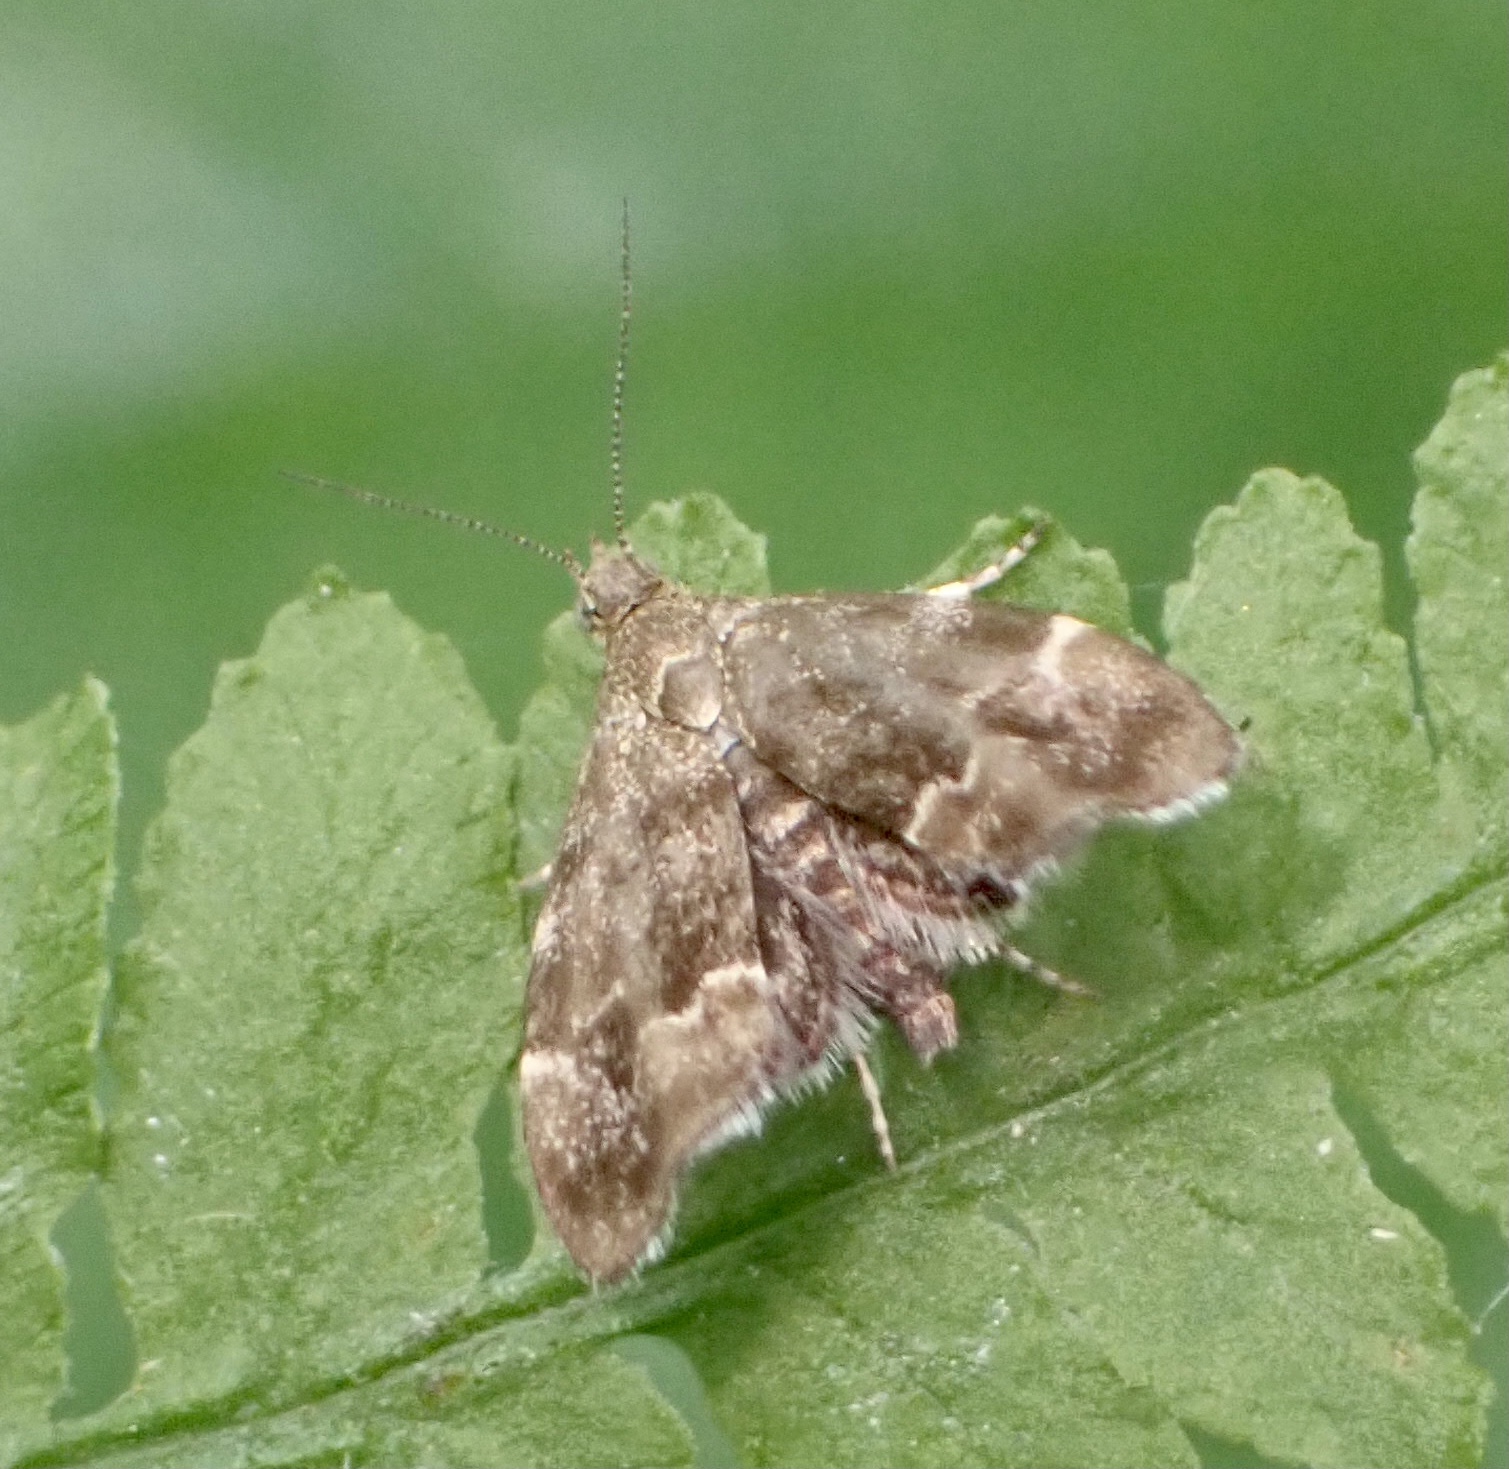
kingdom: Animalia
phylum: Arthropoda
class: Insecta
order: Lepidoptera
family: Choreutidae
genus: Anthophila
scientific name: Anthophila fabriciana
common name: Nettle-tap
